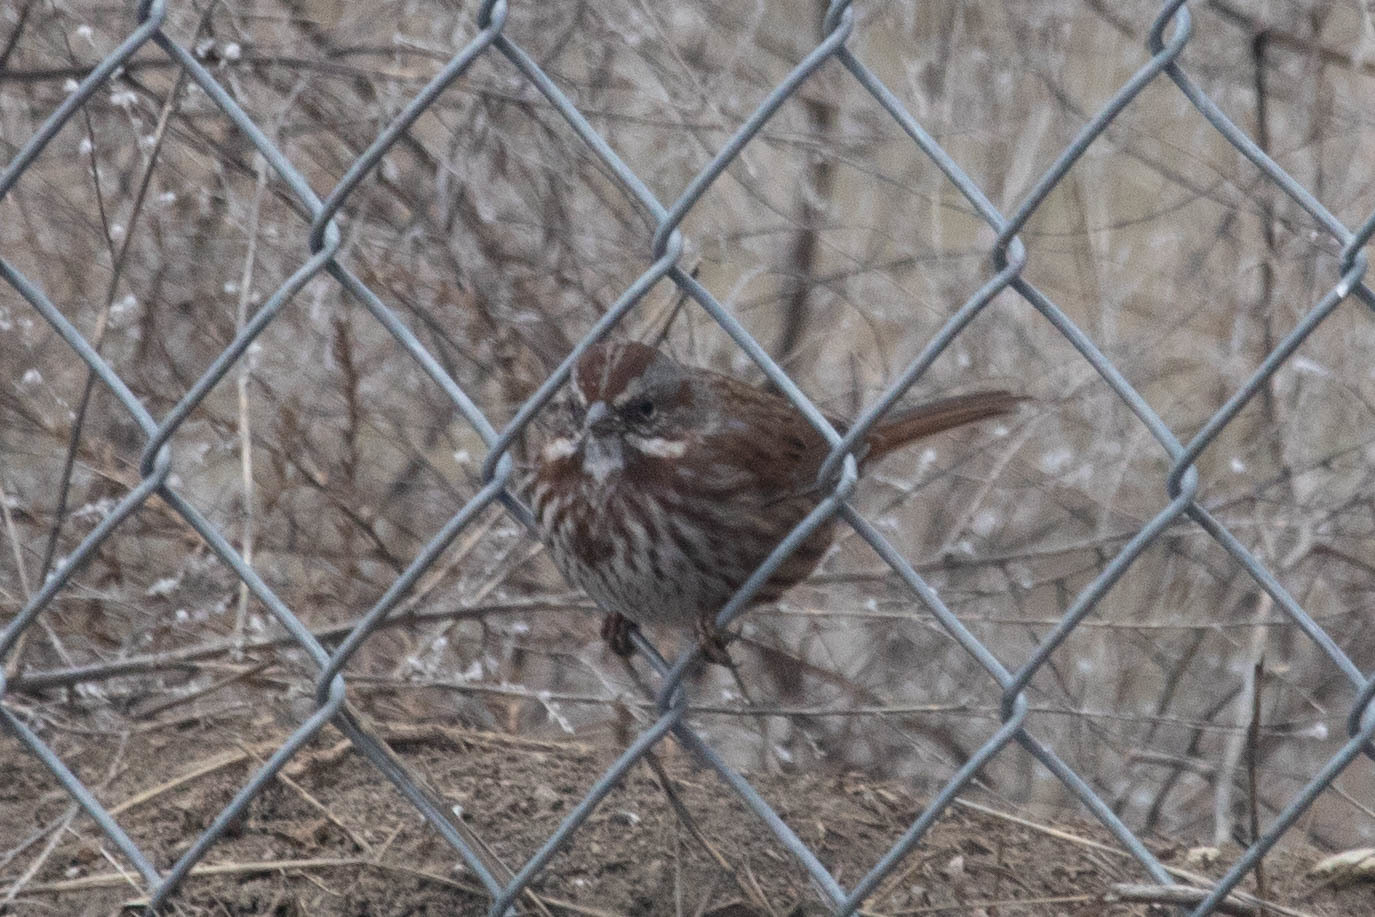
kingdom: Animalia
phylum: Chordata
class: Aves
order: Passeriformes
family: Passerellidae
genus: Melospiza
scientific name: Melospiza melodia
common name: Song sparrow
